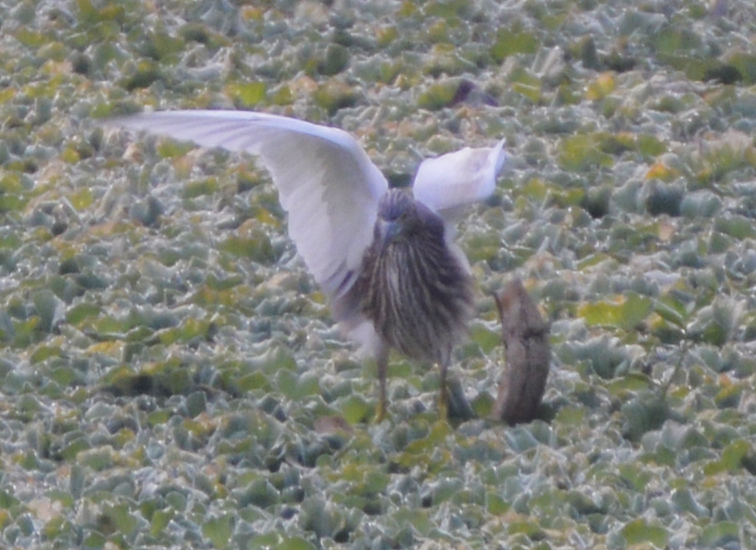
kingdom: Animalia
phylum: Chordata
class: Aves
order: Pelecaniformes
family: Ardeidae
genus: Ardeola
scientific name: Ardeola grayii
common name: Indian pond heron
